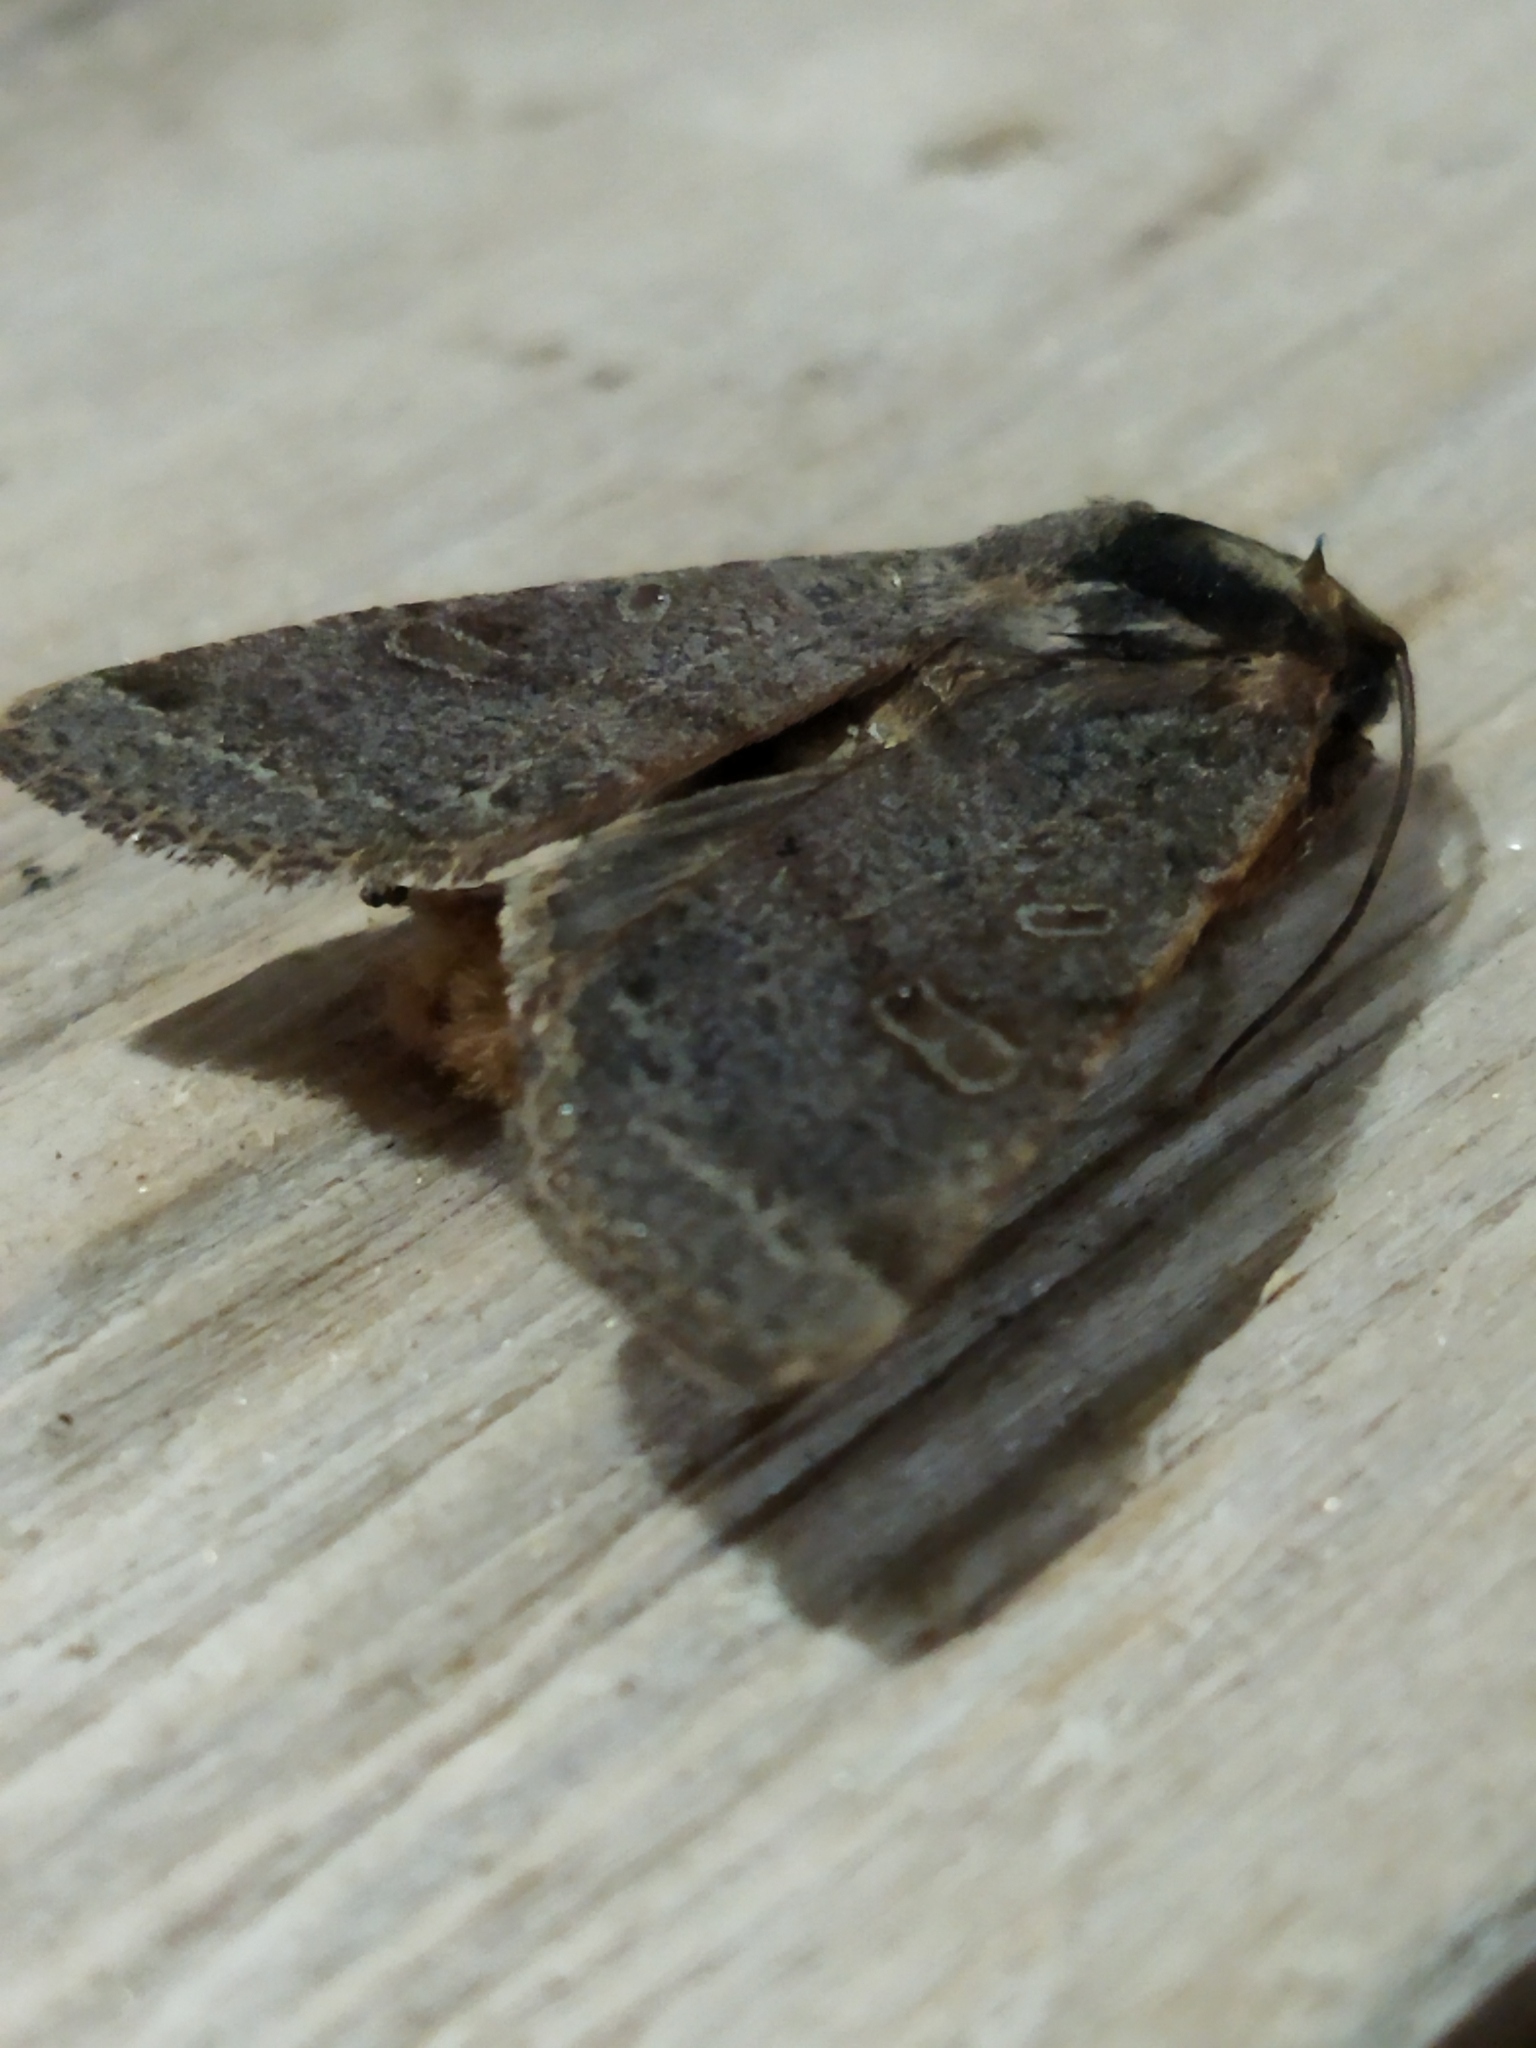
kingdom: Animalia
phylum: Arthropoda
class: Insecta
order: Lepidoptera
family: Noctuidae
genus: Agrochola
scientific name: Agrochola lychnidis
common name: Beaded chestnut
